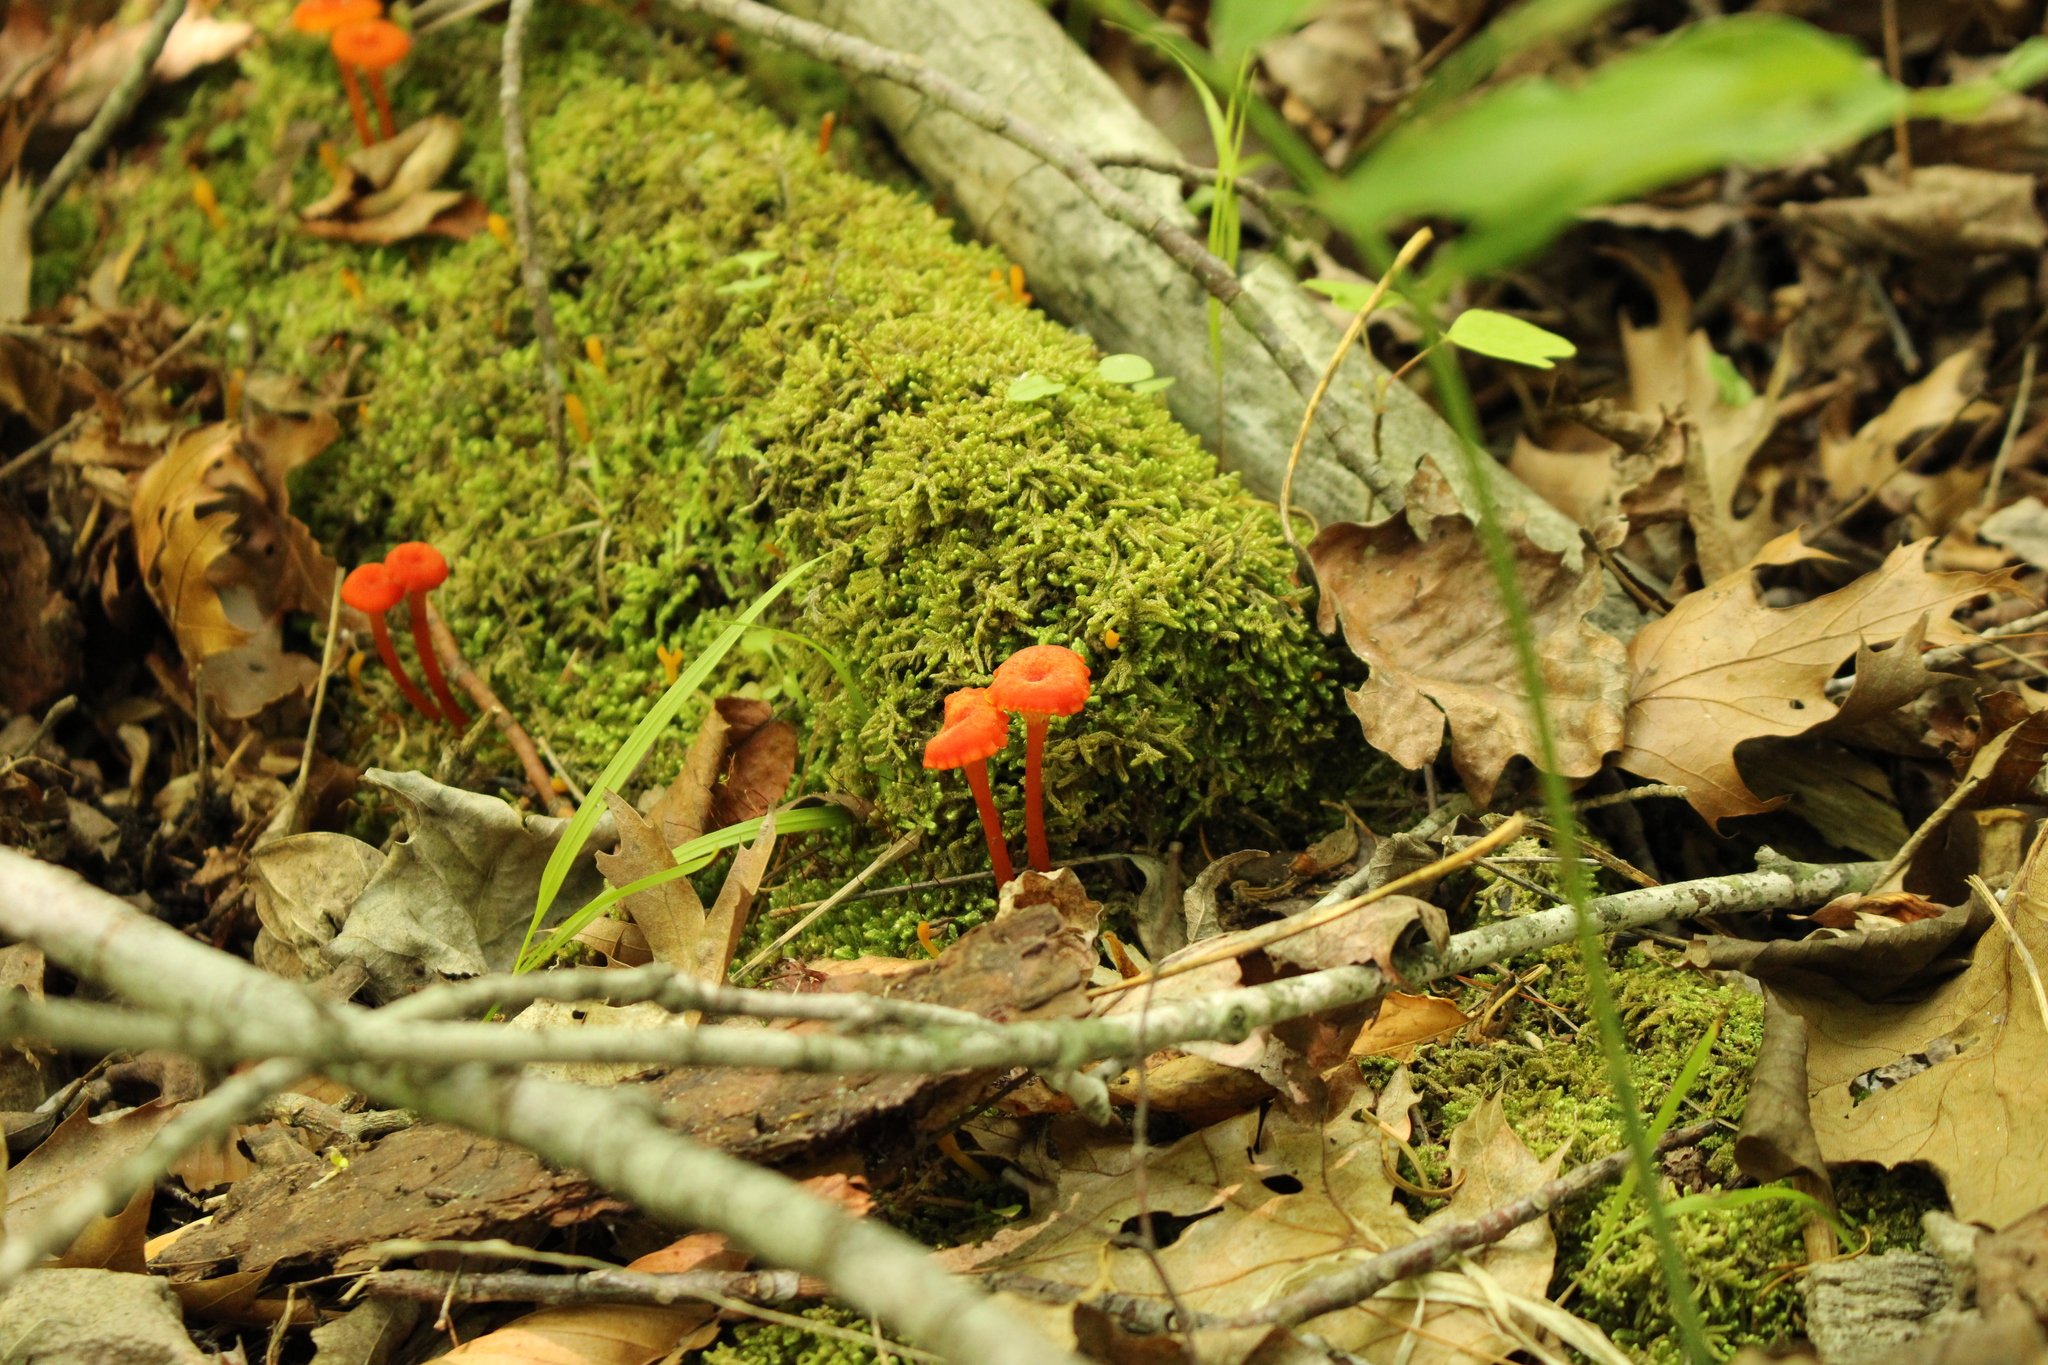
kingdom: Fungi
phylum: Basidiomycota
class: Agaricomycetes
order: Agaricales
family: Hygrophoraceae
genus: Hygrocybe
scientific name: Hygrocybe cantharellus
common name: Goblet waxcap
